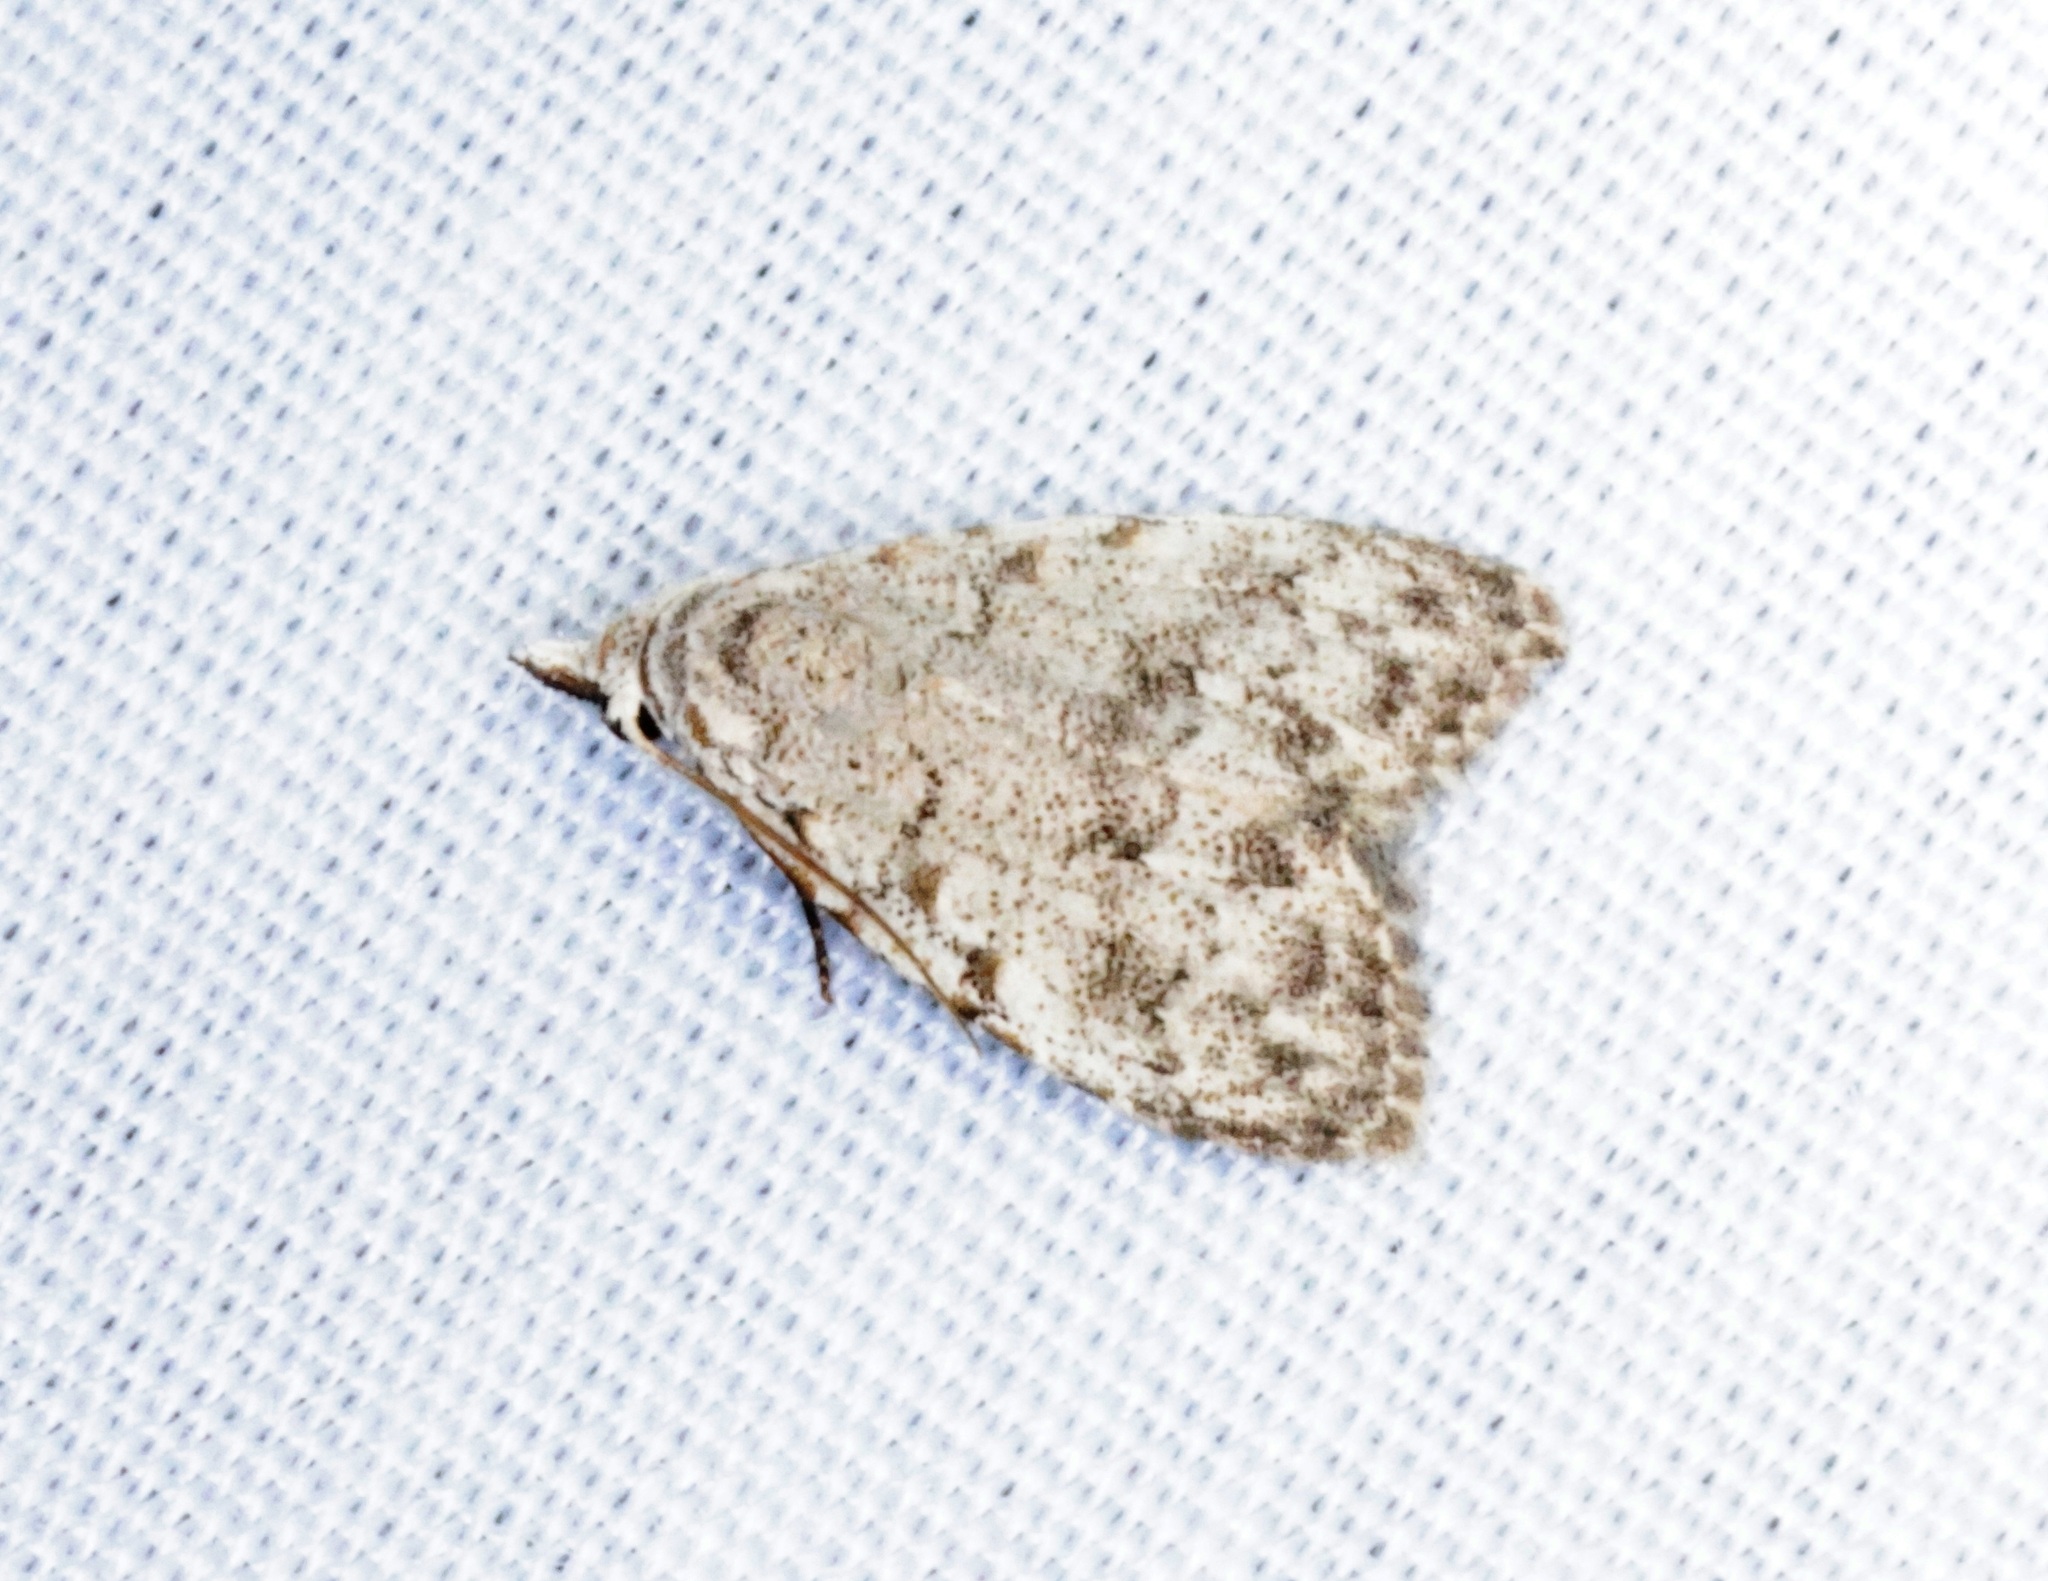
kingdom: Animalia
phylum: Arthropoda
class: Insecta
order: Lepidoptera
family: Nolidae
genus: Nola
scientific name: Nola thyrophora
